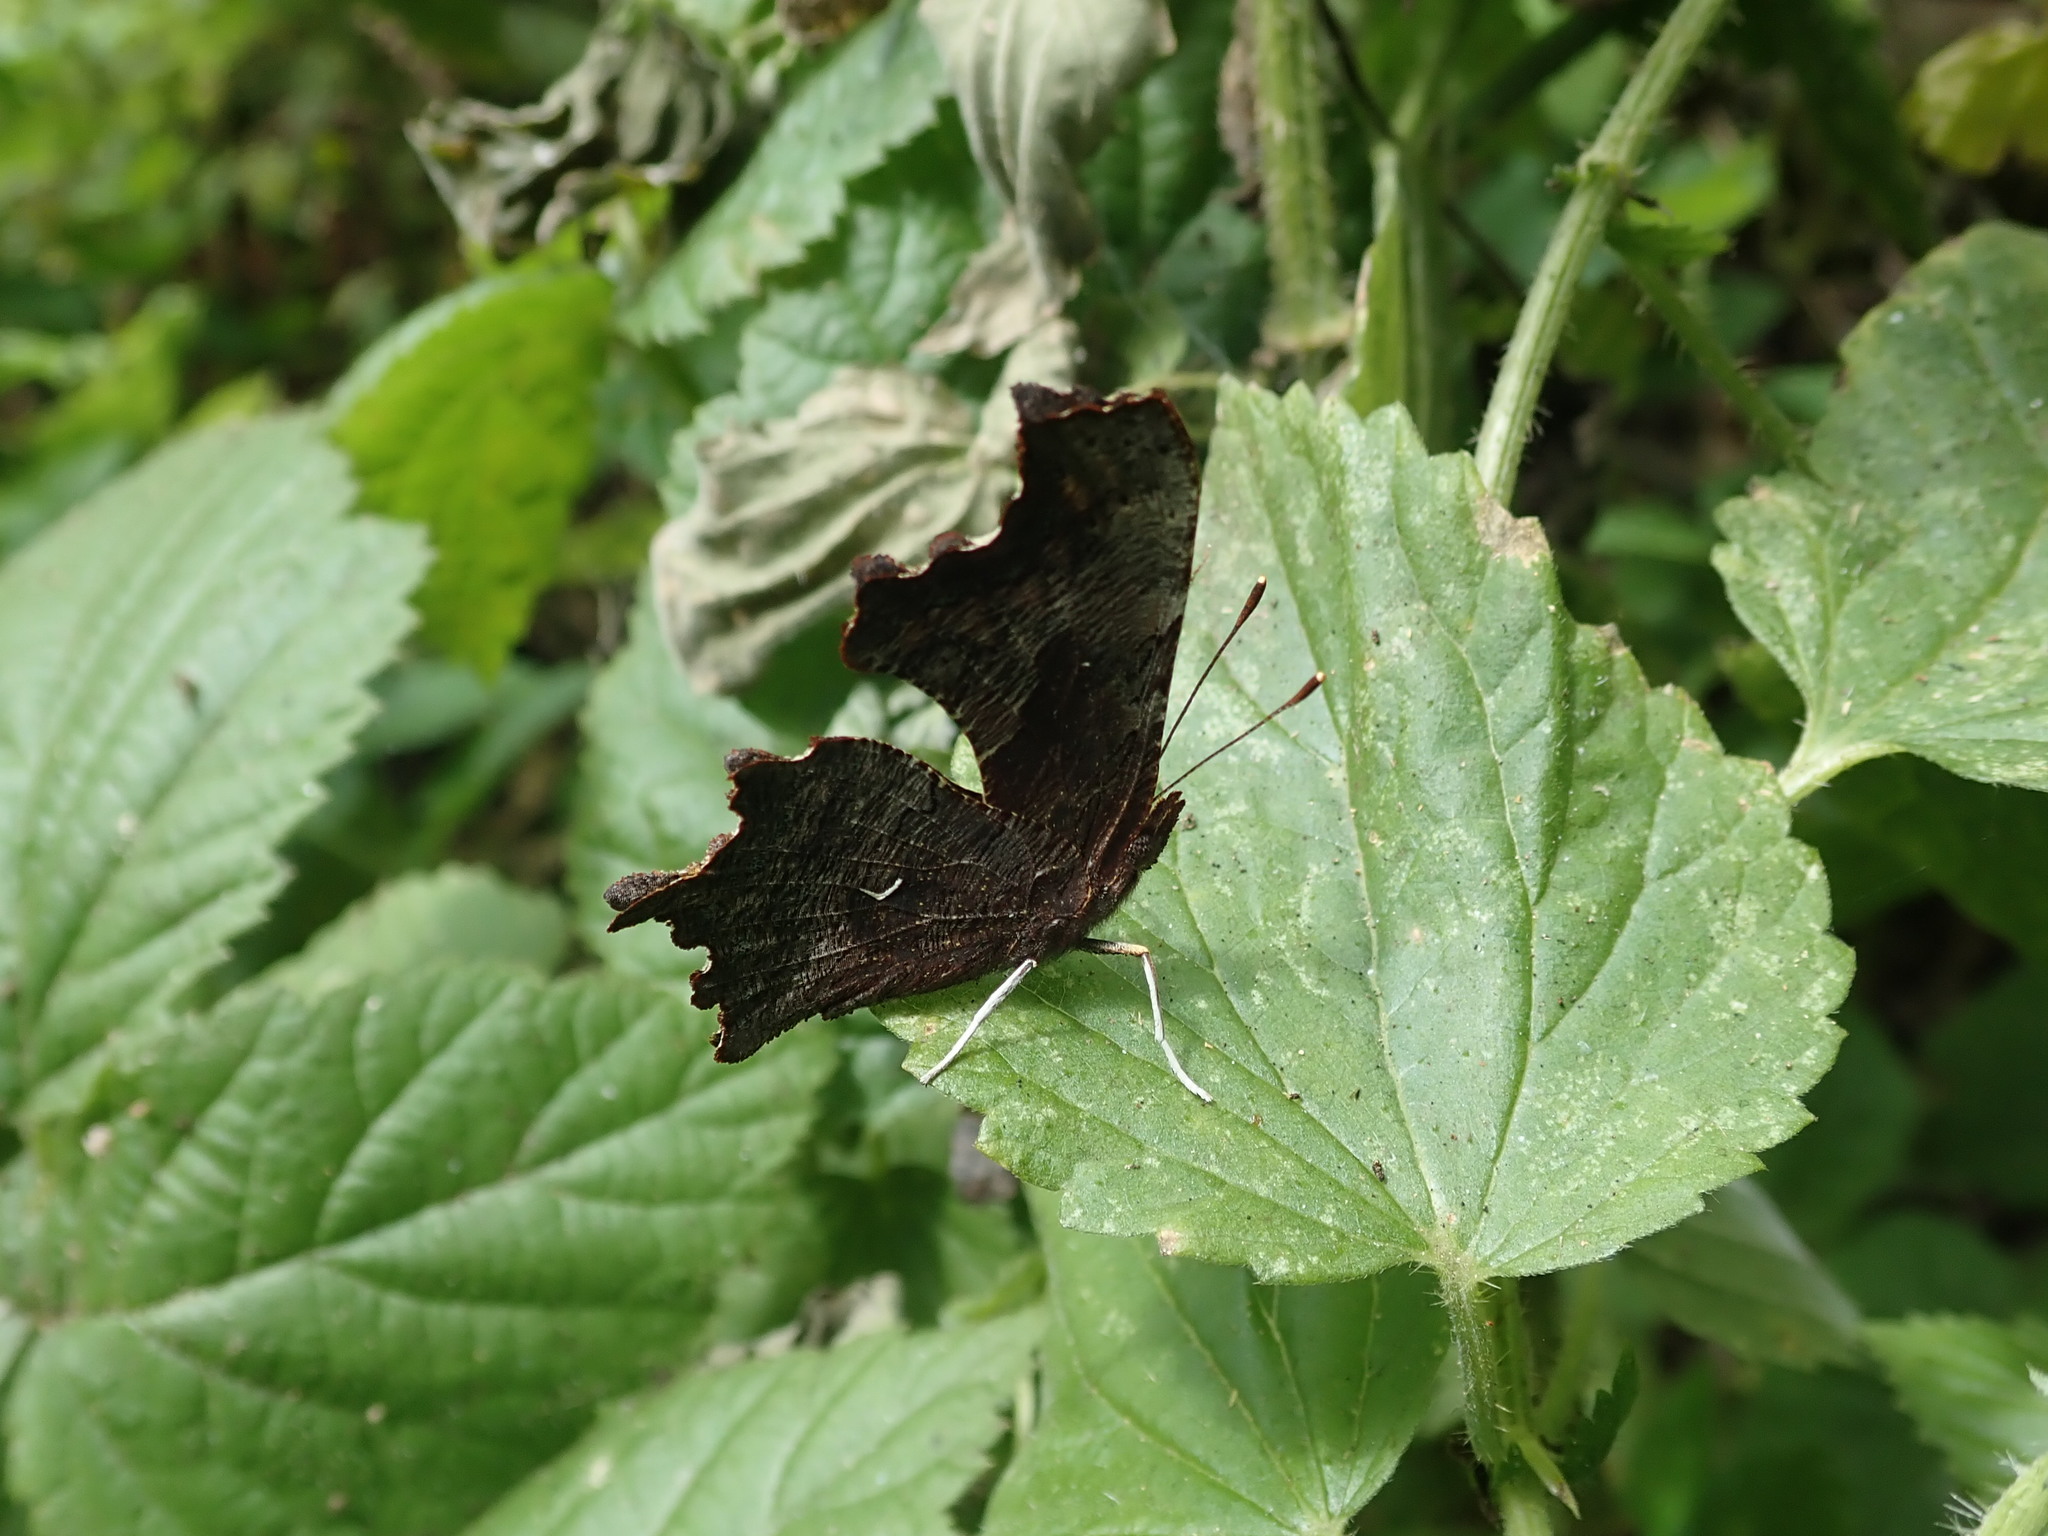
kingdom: Animalia
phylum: Arthropoda
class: Insecta
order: Lepidoptera
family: Nymphalidae
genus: Polygonia
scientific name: Polygonia oreas
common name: Oreas comma
